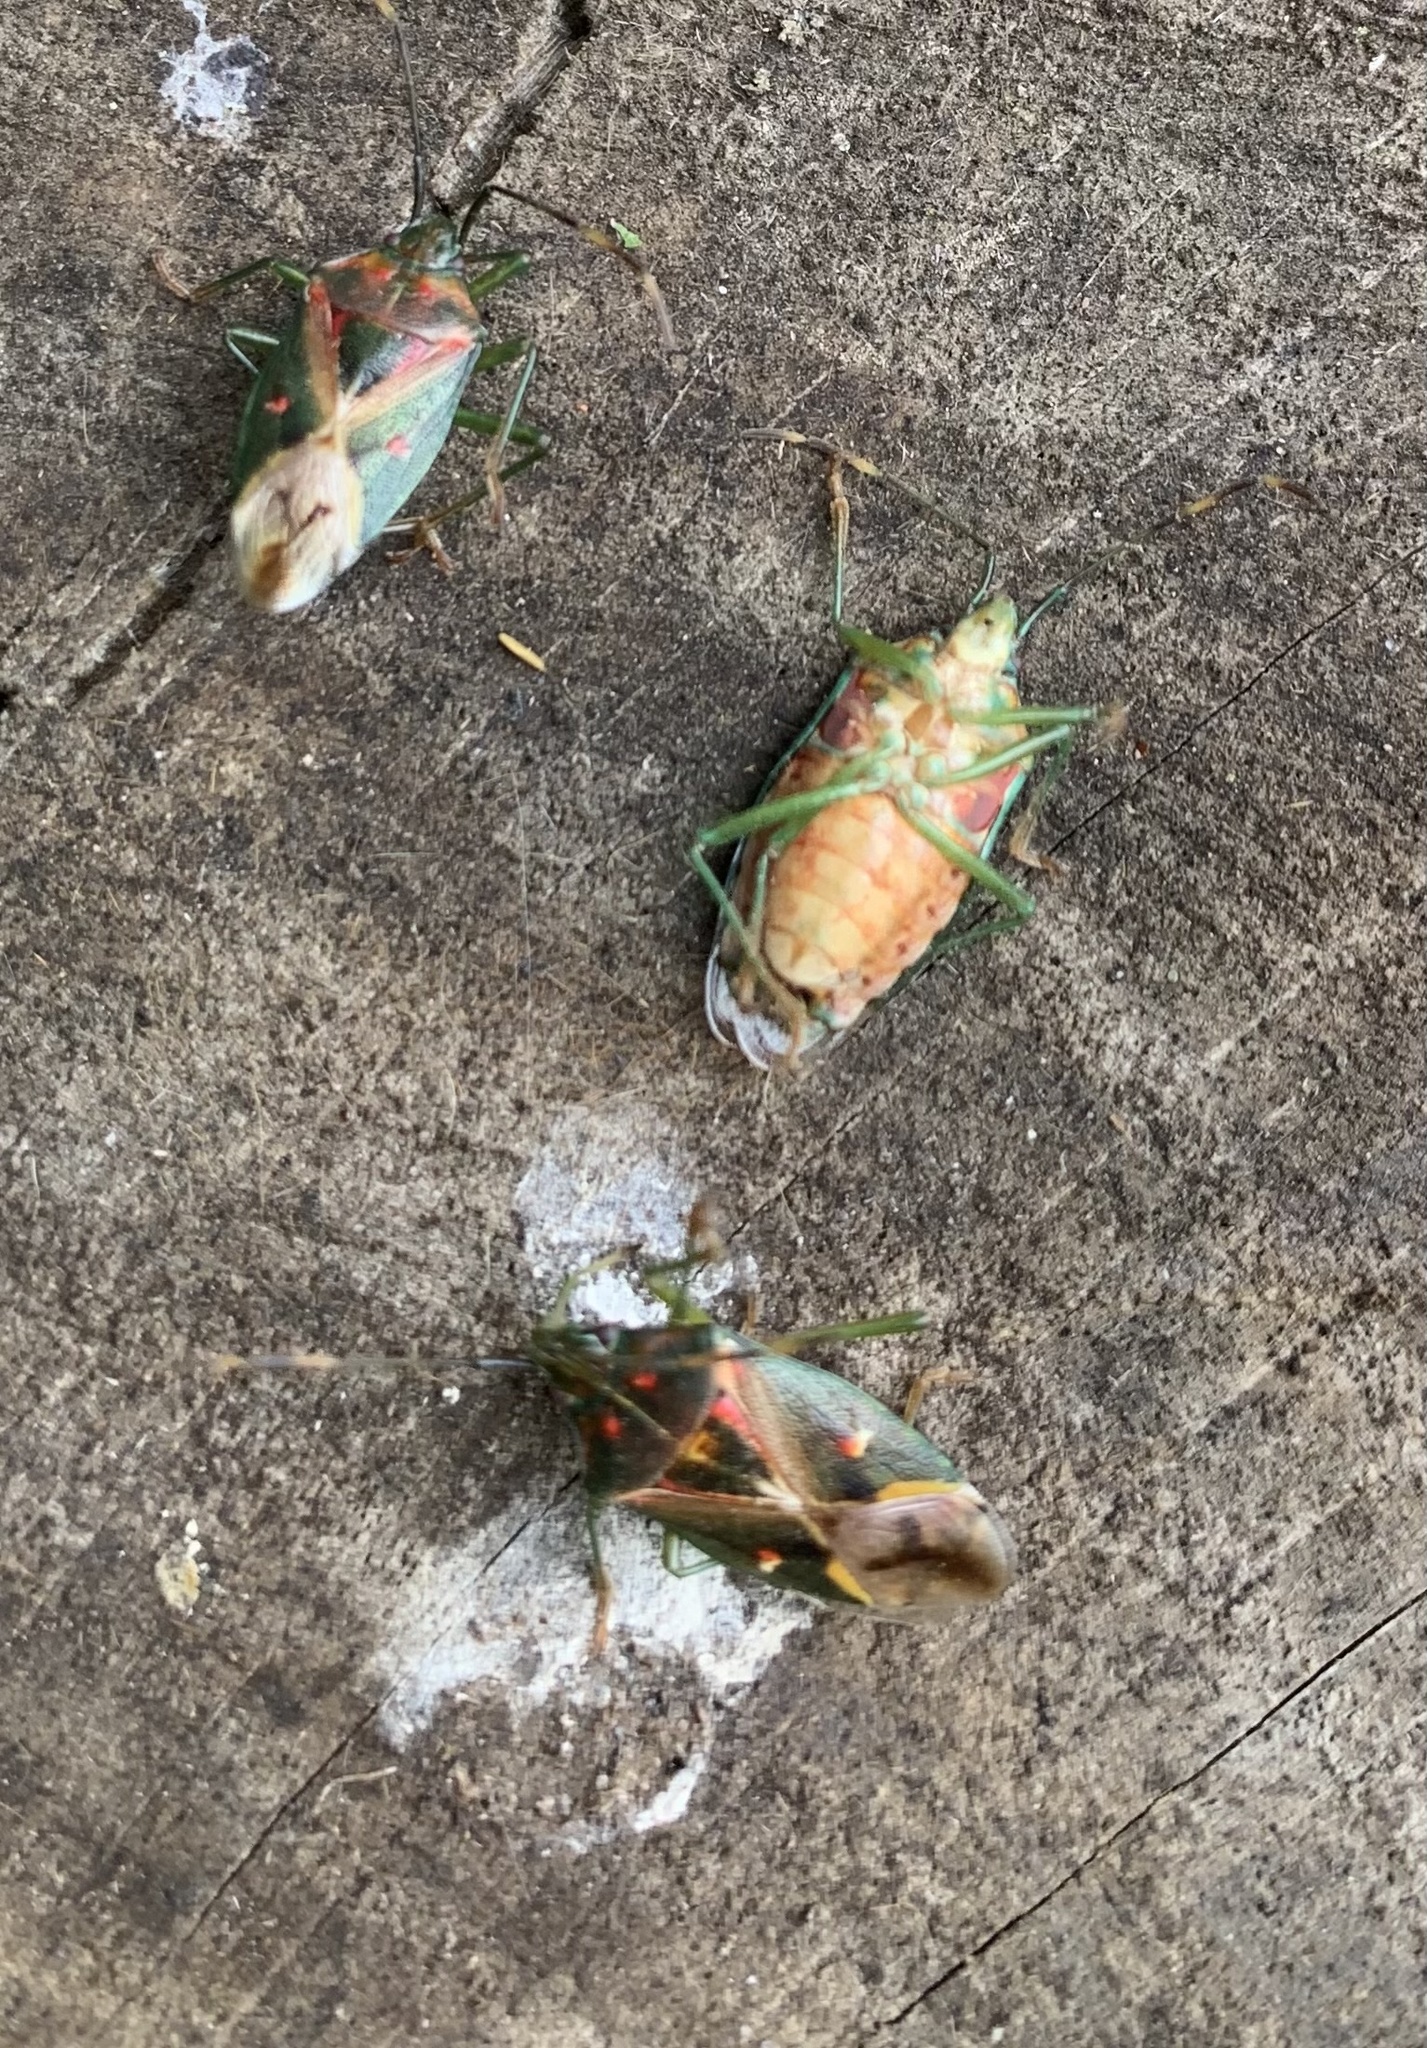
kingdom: Animalia
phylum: Arthropoda
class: Insecta
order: Hemiptera
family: Acanthosomatidae
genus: Planois
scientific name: Planois gayi
